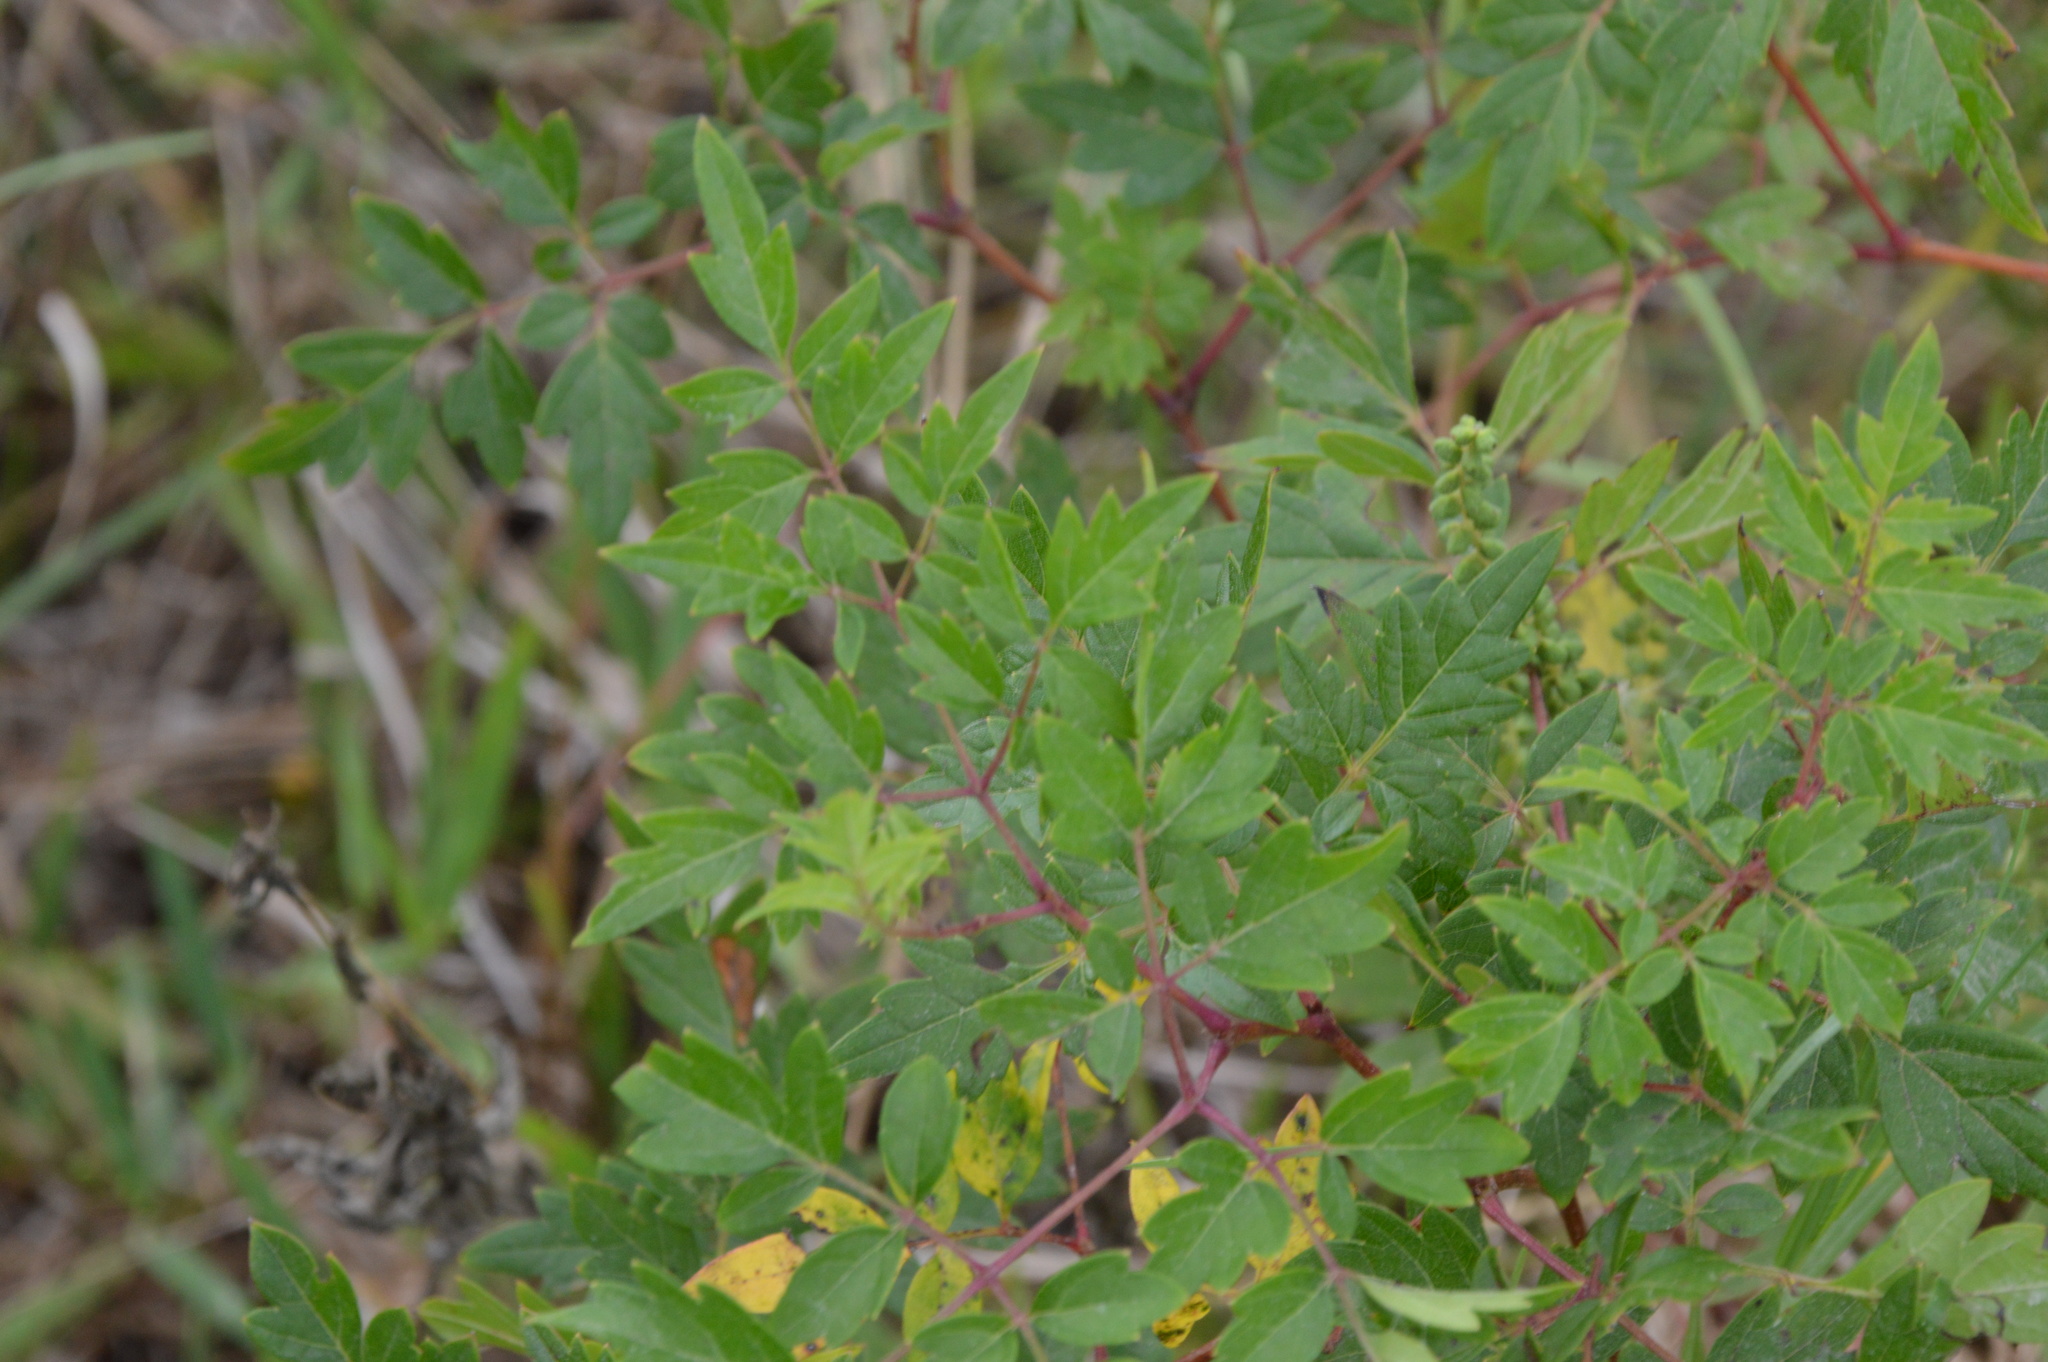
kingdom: Plantae
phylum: Tracheophyta
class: Magnoliopsida
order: Vitales
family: Vitaceae
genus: Nekemias
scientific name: Nekemias arborea
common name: Peppervine
